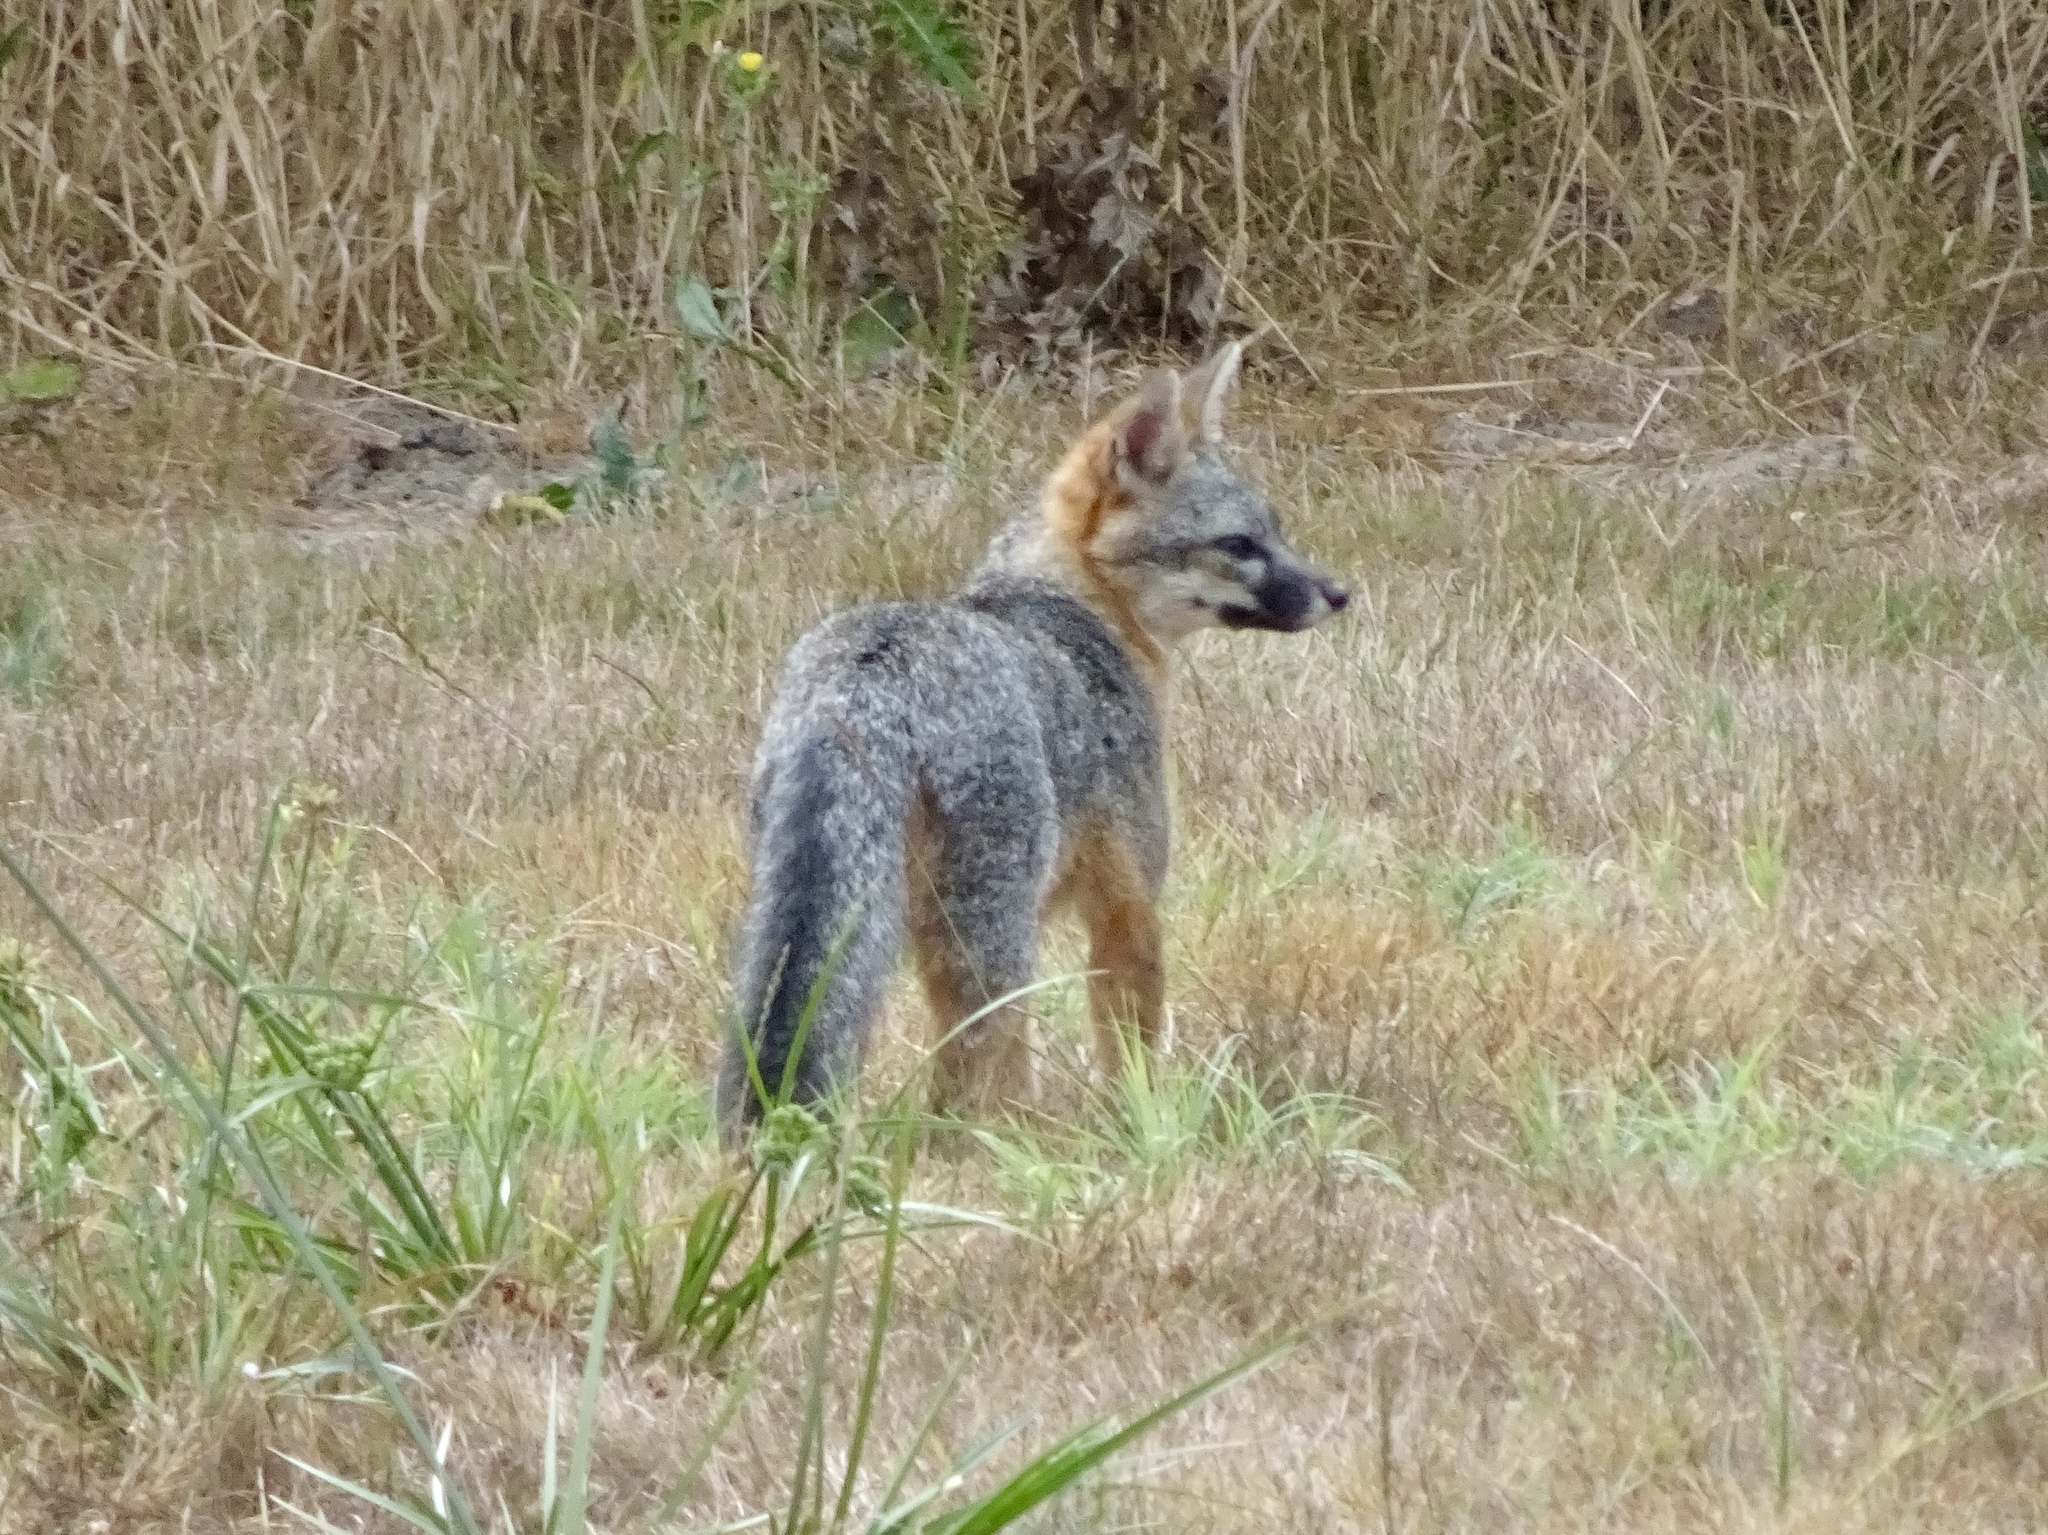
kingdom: Animalia
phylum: Chordata
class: Mammalia
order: Carnivora
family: Canidae
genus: Urocyon
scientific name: Urocyon cinereoargenteus
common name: Gray fox
